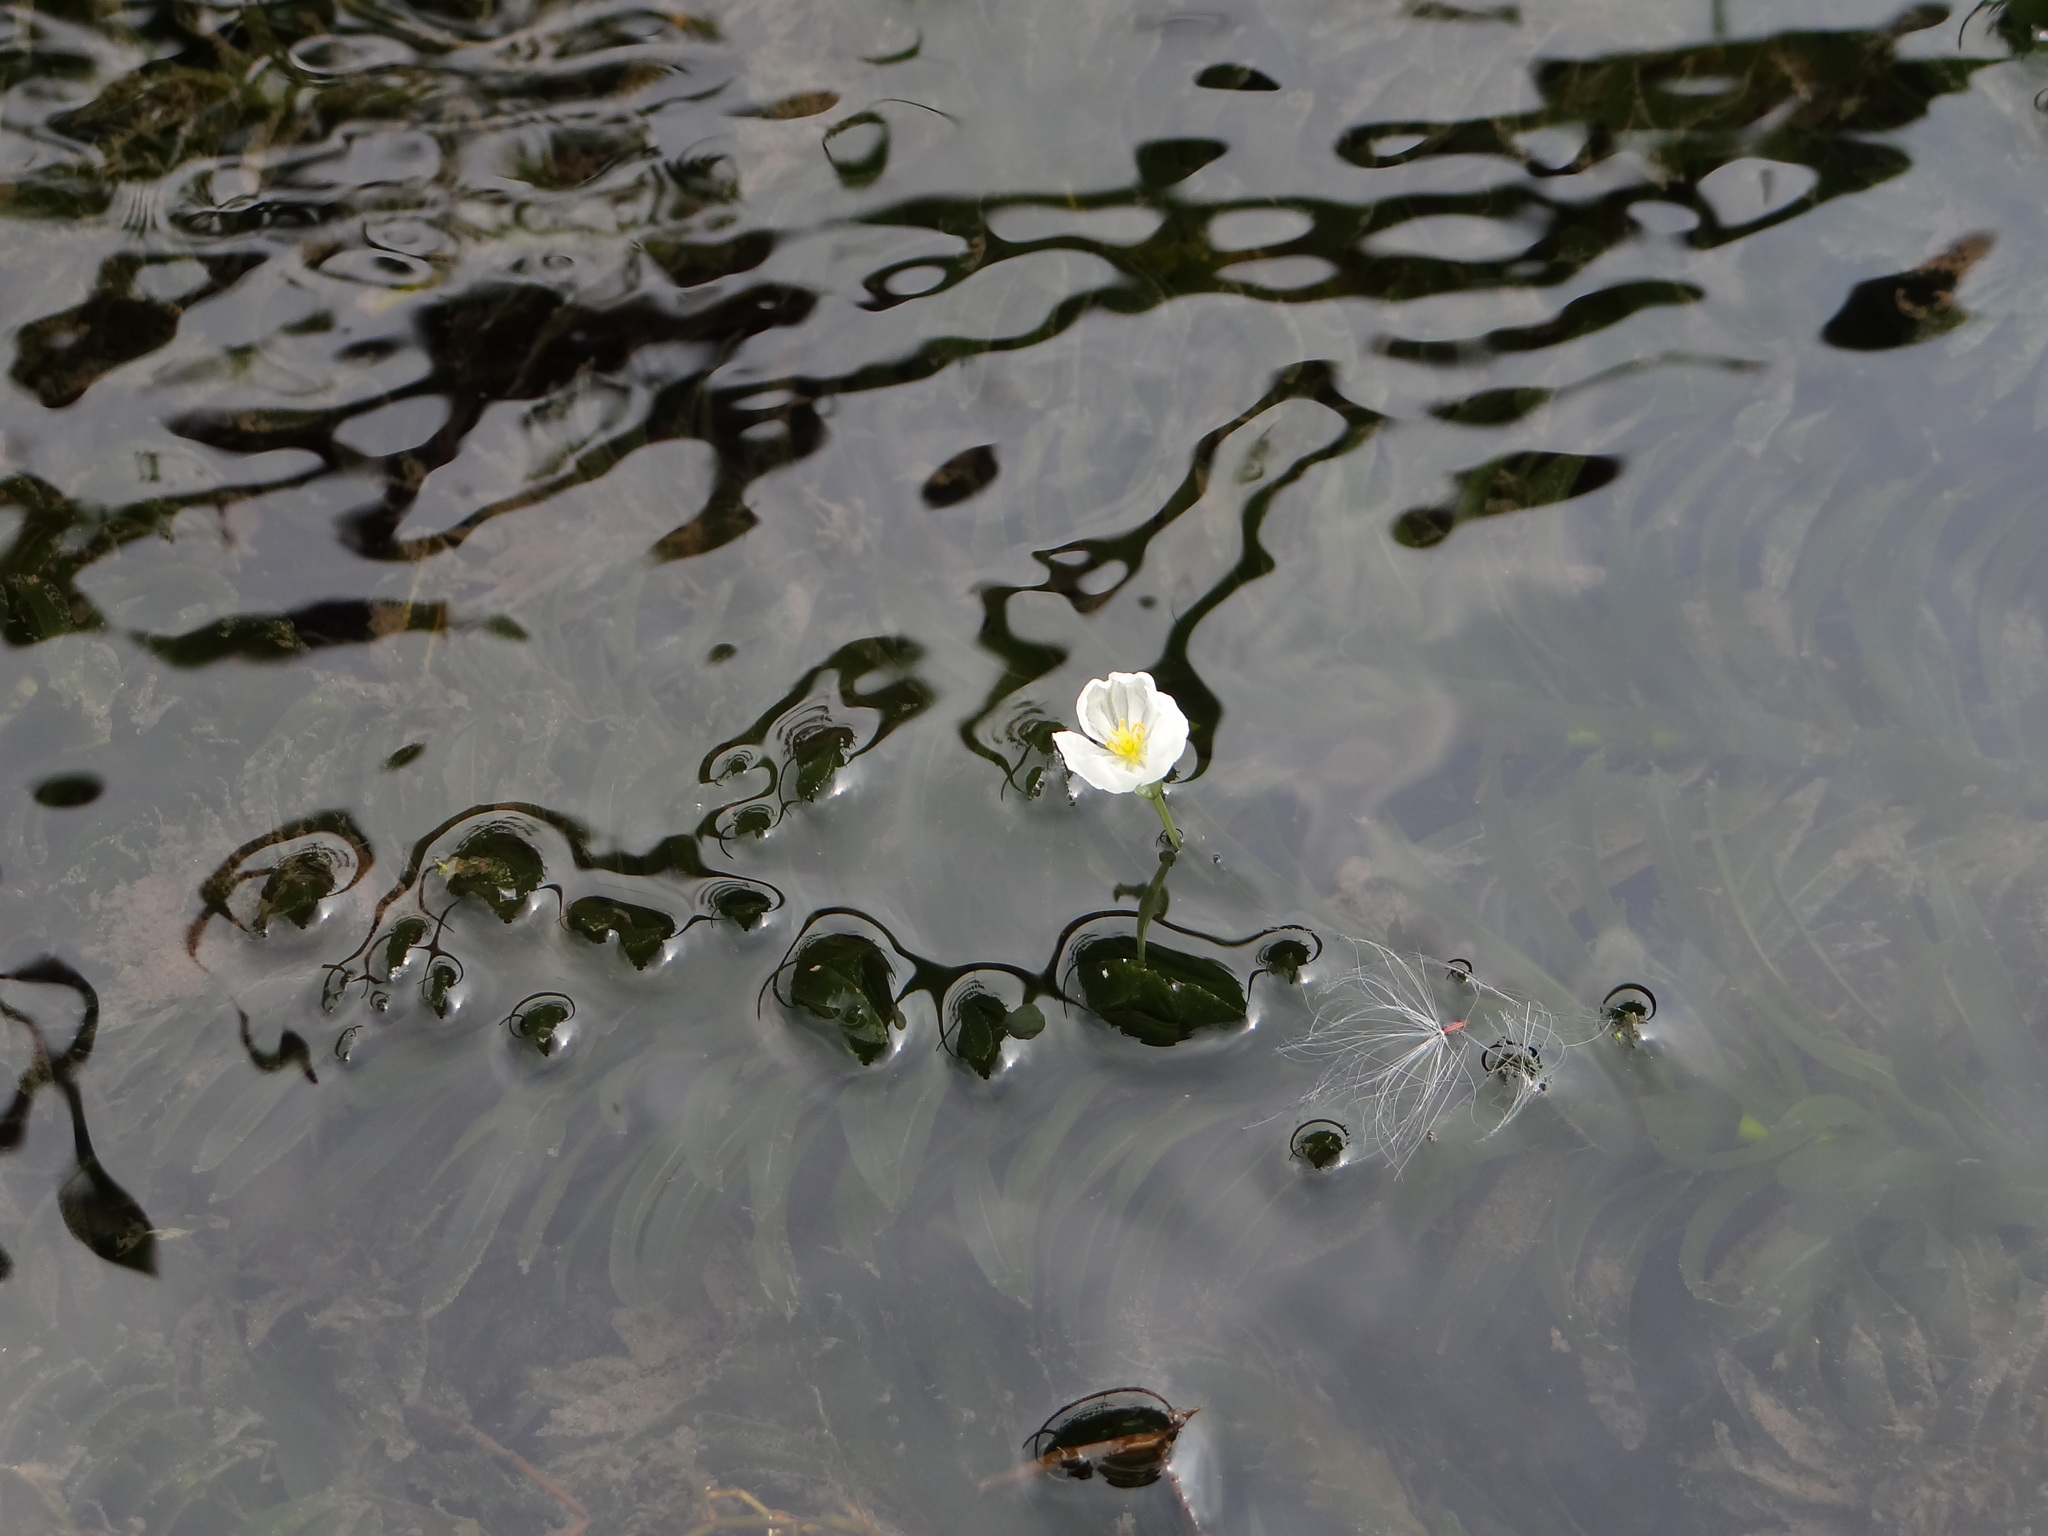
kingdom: Plantae
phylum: Tracheophyta
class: Liliopsida
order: Alismatales
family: Hydrocharitaceae
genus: Elodea
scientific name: Elodea densa
